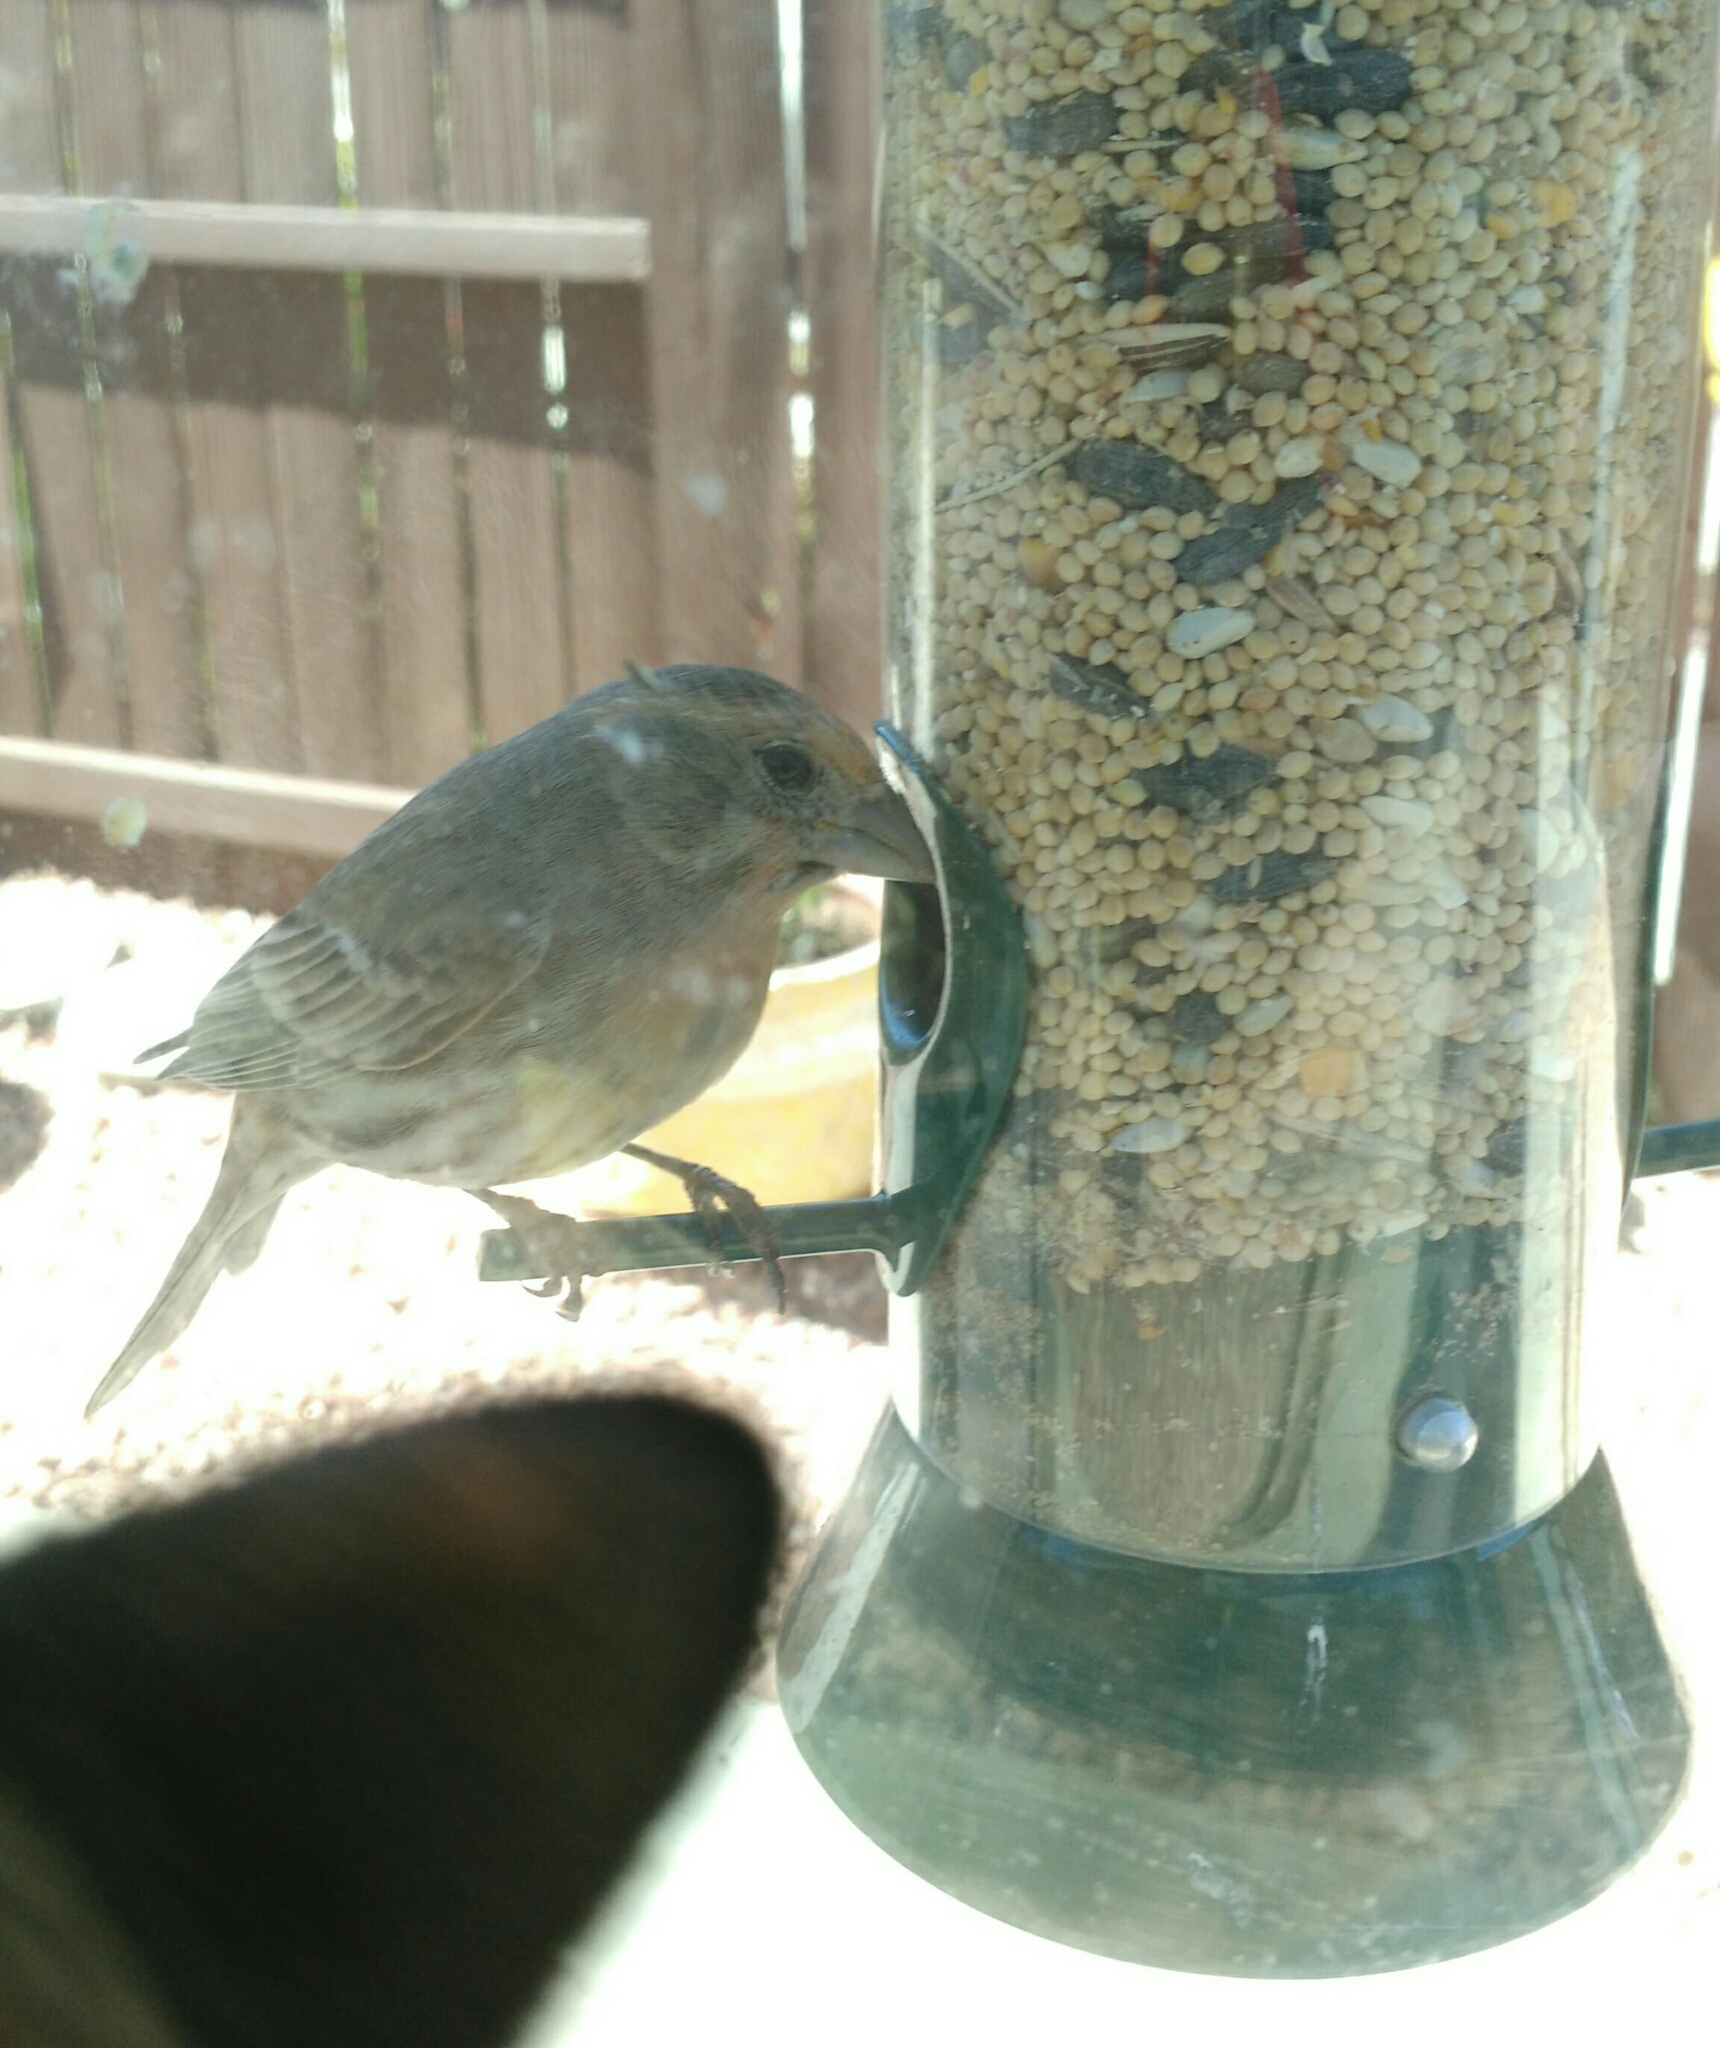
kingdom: Animalia
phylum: Chordata
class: Aves
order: Passeriformes
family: Fringillidae
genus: Haemorhous
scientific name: Haemorhous mexicanus
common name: House finch
